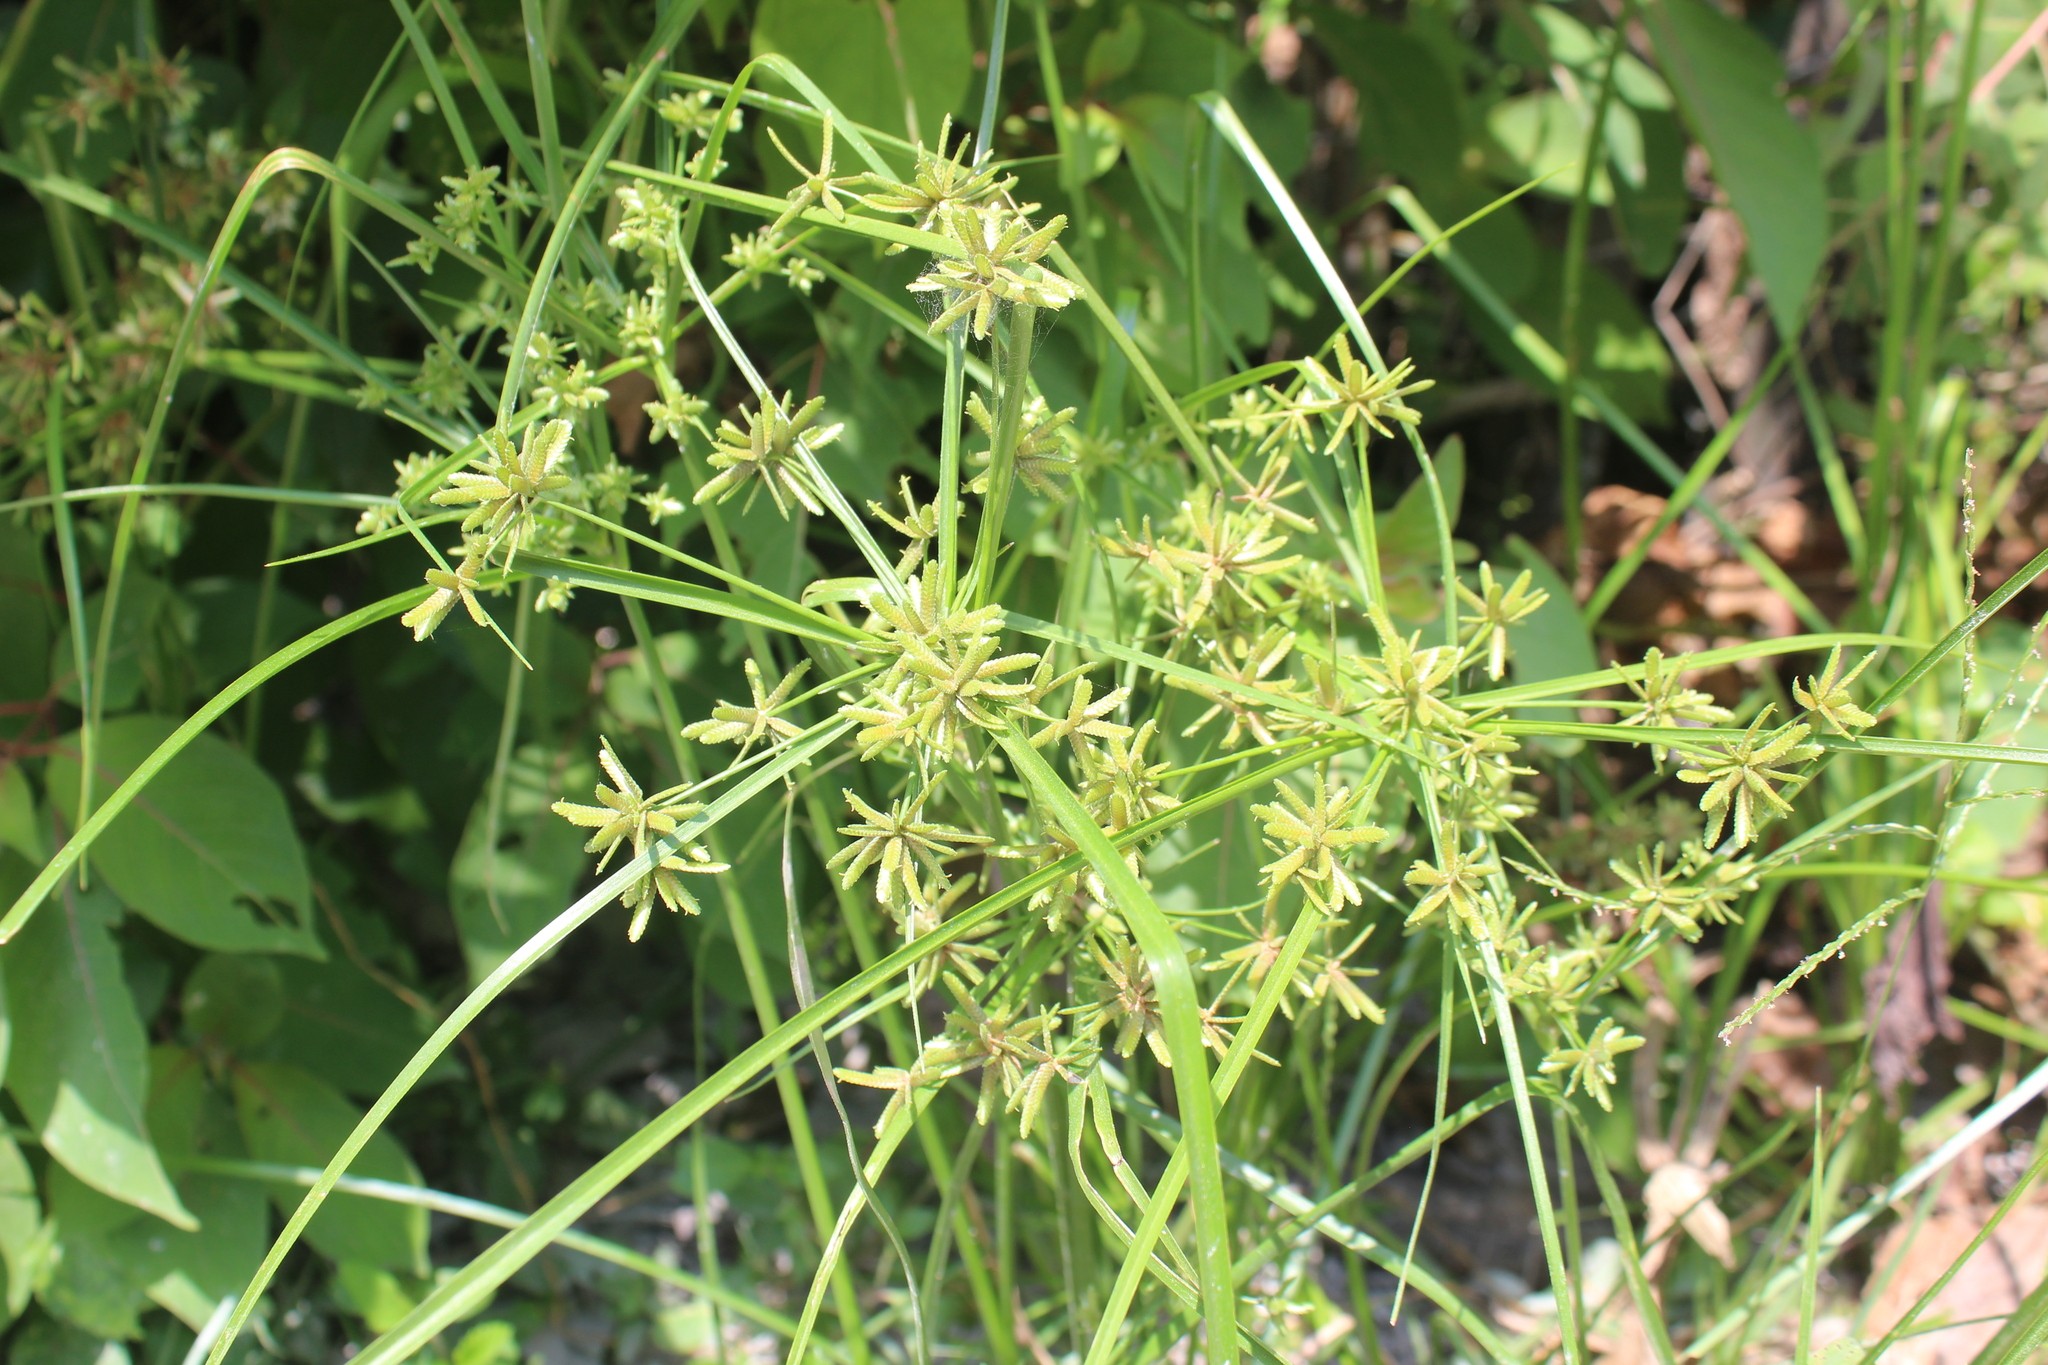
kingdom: Plantae
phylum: Tracheophyta
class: Liliopsida
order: Poales
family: Cyperaceae
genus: Cyperus
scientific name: Cyperus ochraceus
